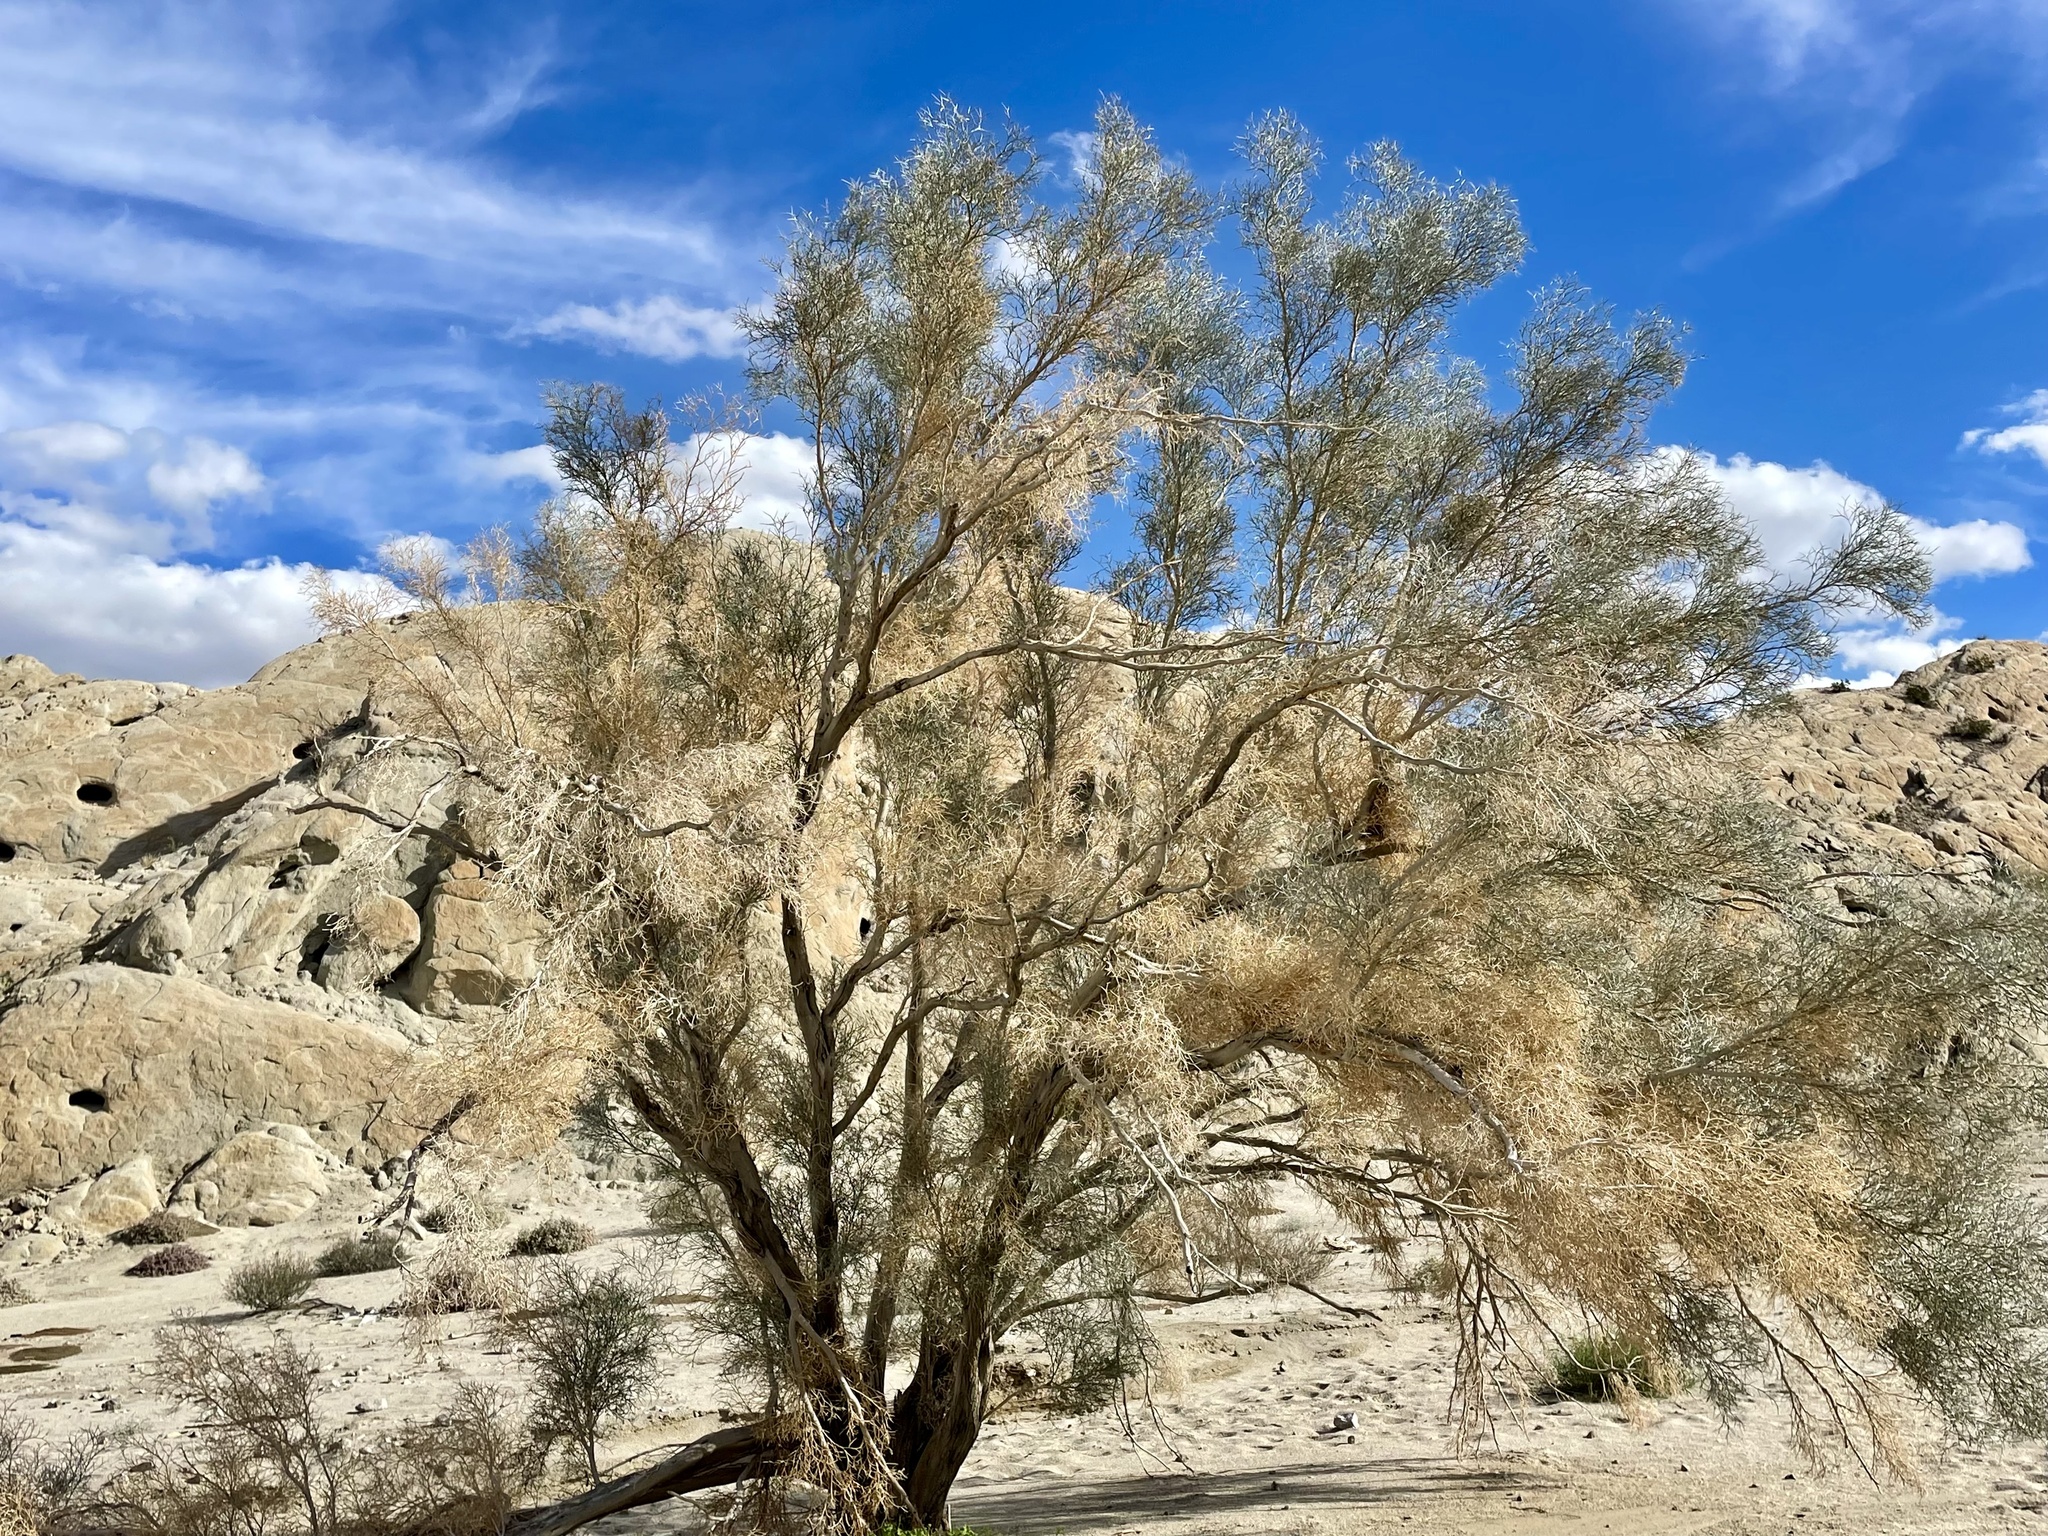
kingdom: Plantae
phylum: Tracheophyta
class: Magnoliopsida
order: Fabales
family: Fabaceae
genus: Psorothamnus
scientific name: Psorothamnus spinosus
